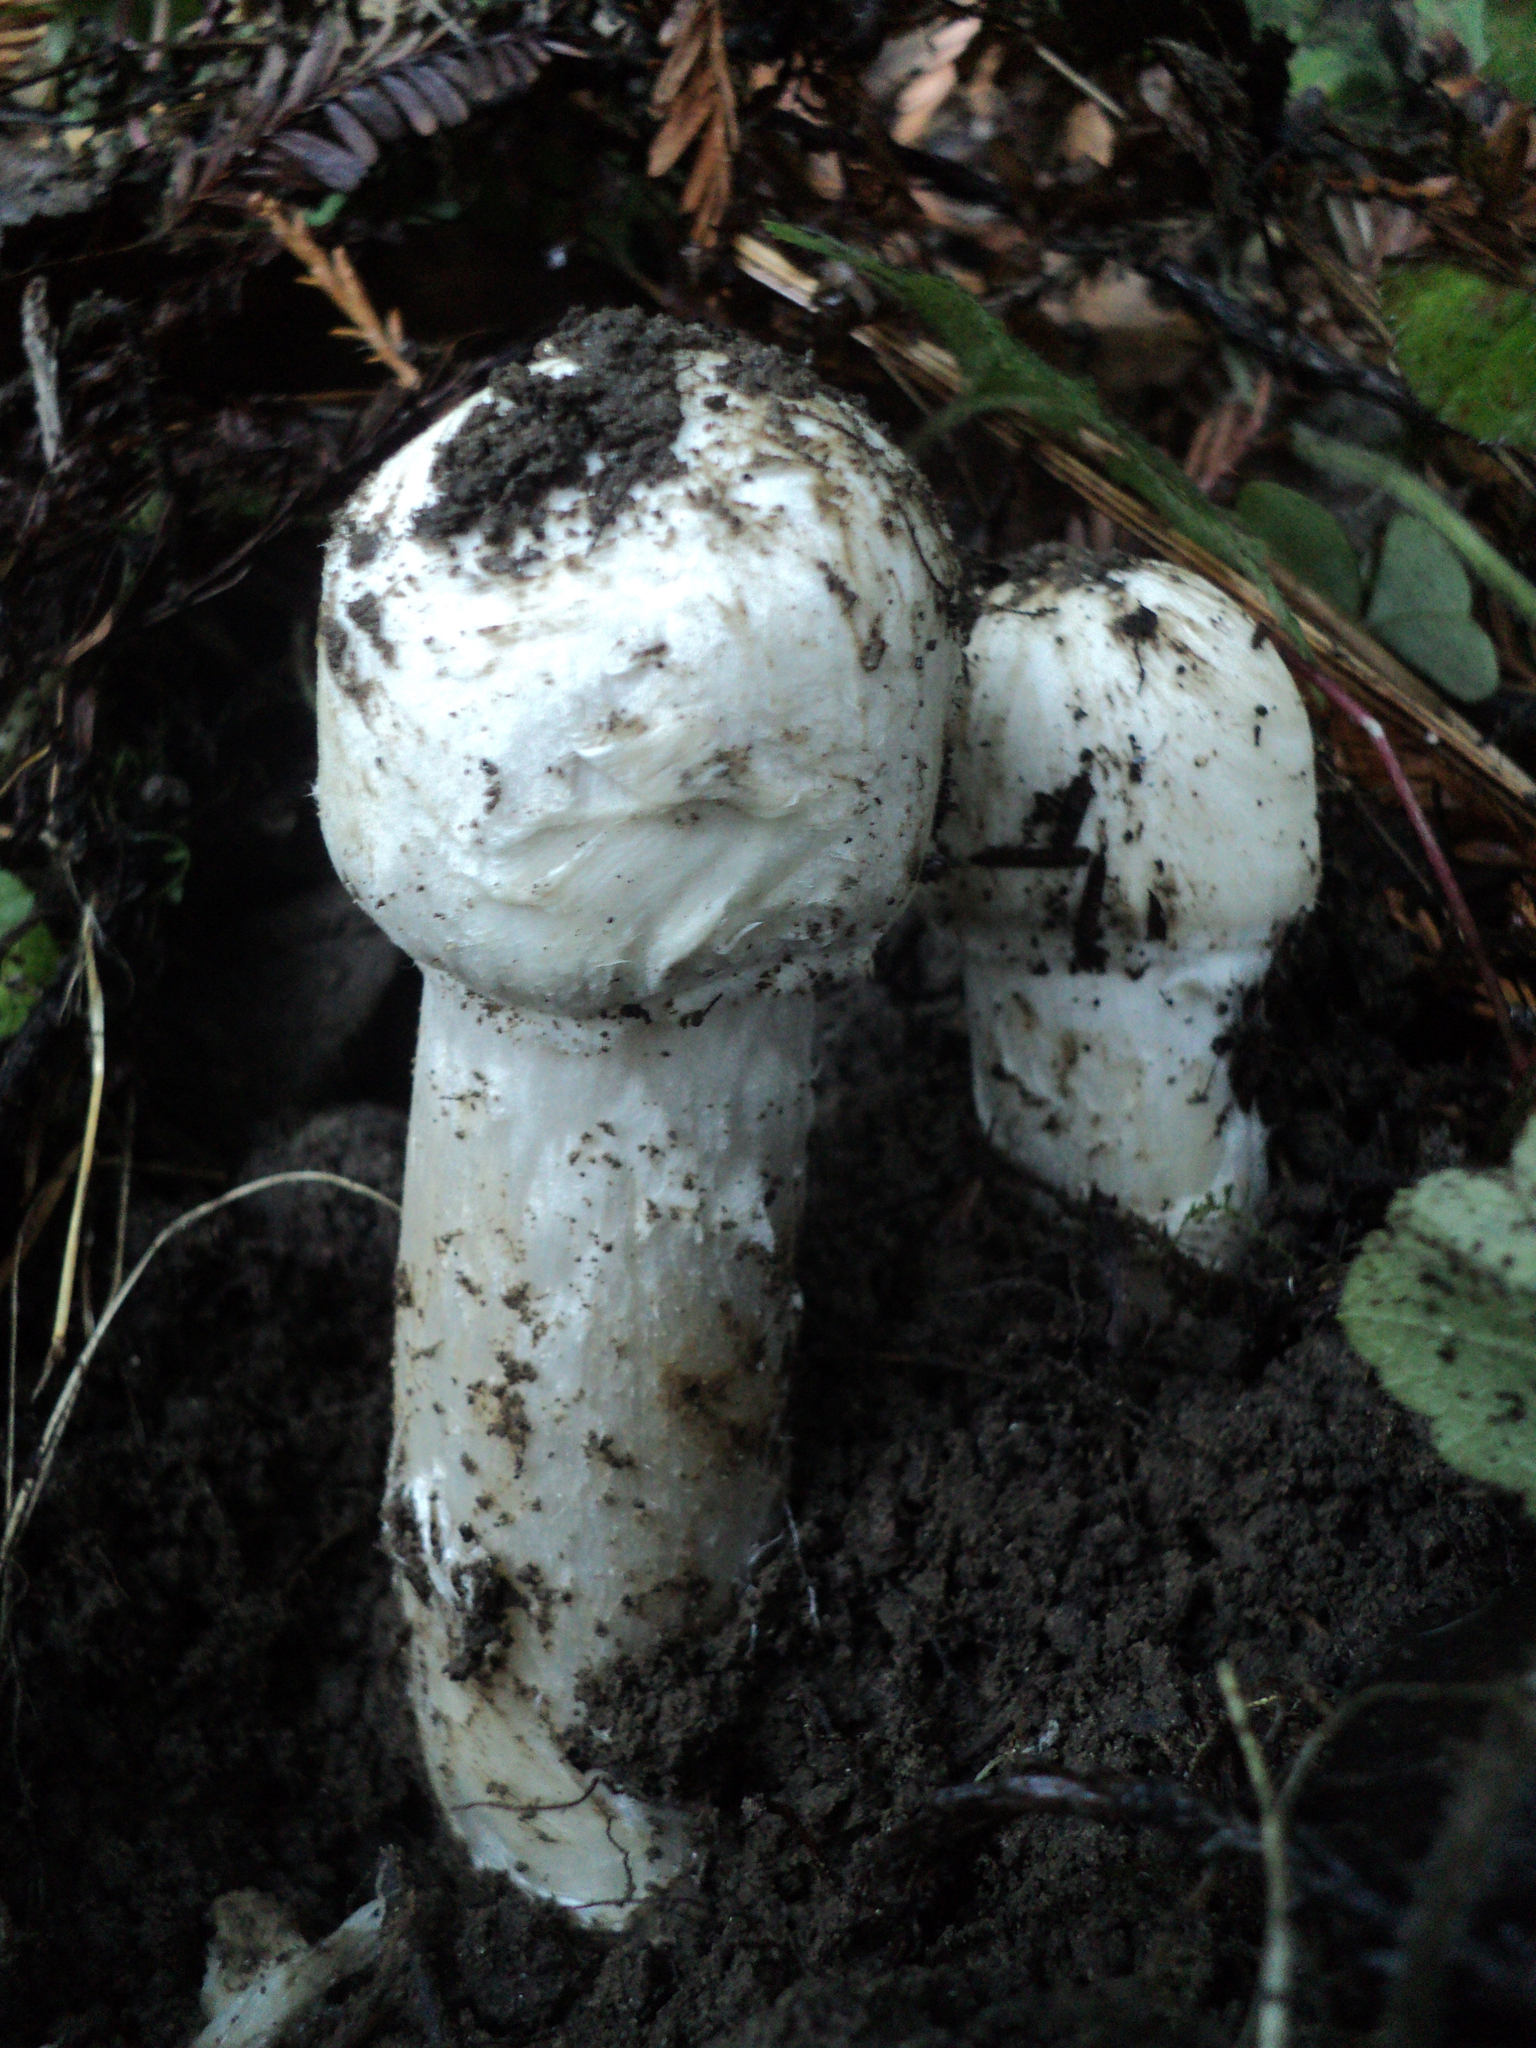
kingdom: Fungi
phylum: Basidiomycota
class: Agaricomycetes
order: Agaricales
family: Agaricaceae
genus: Agaricus
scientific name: Agaricus sequoiae
